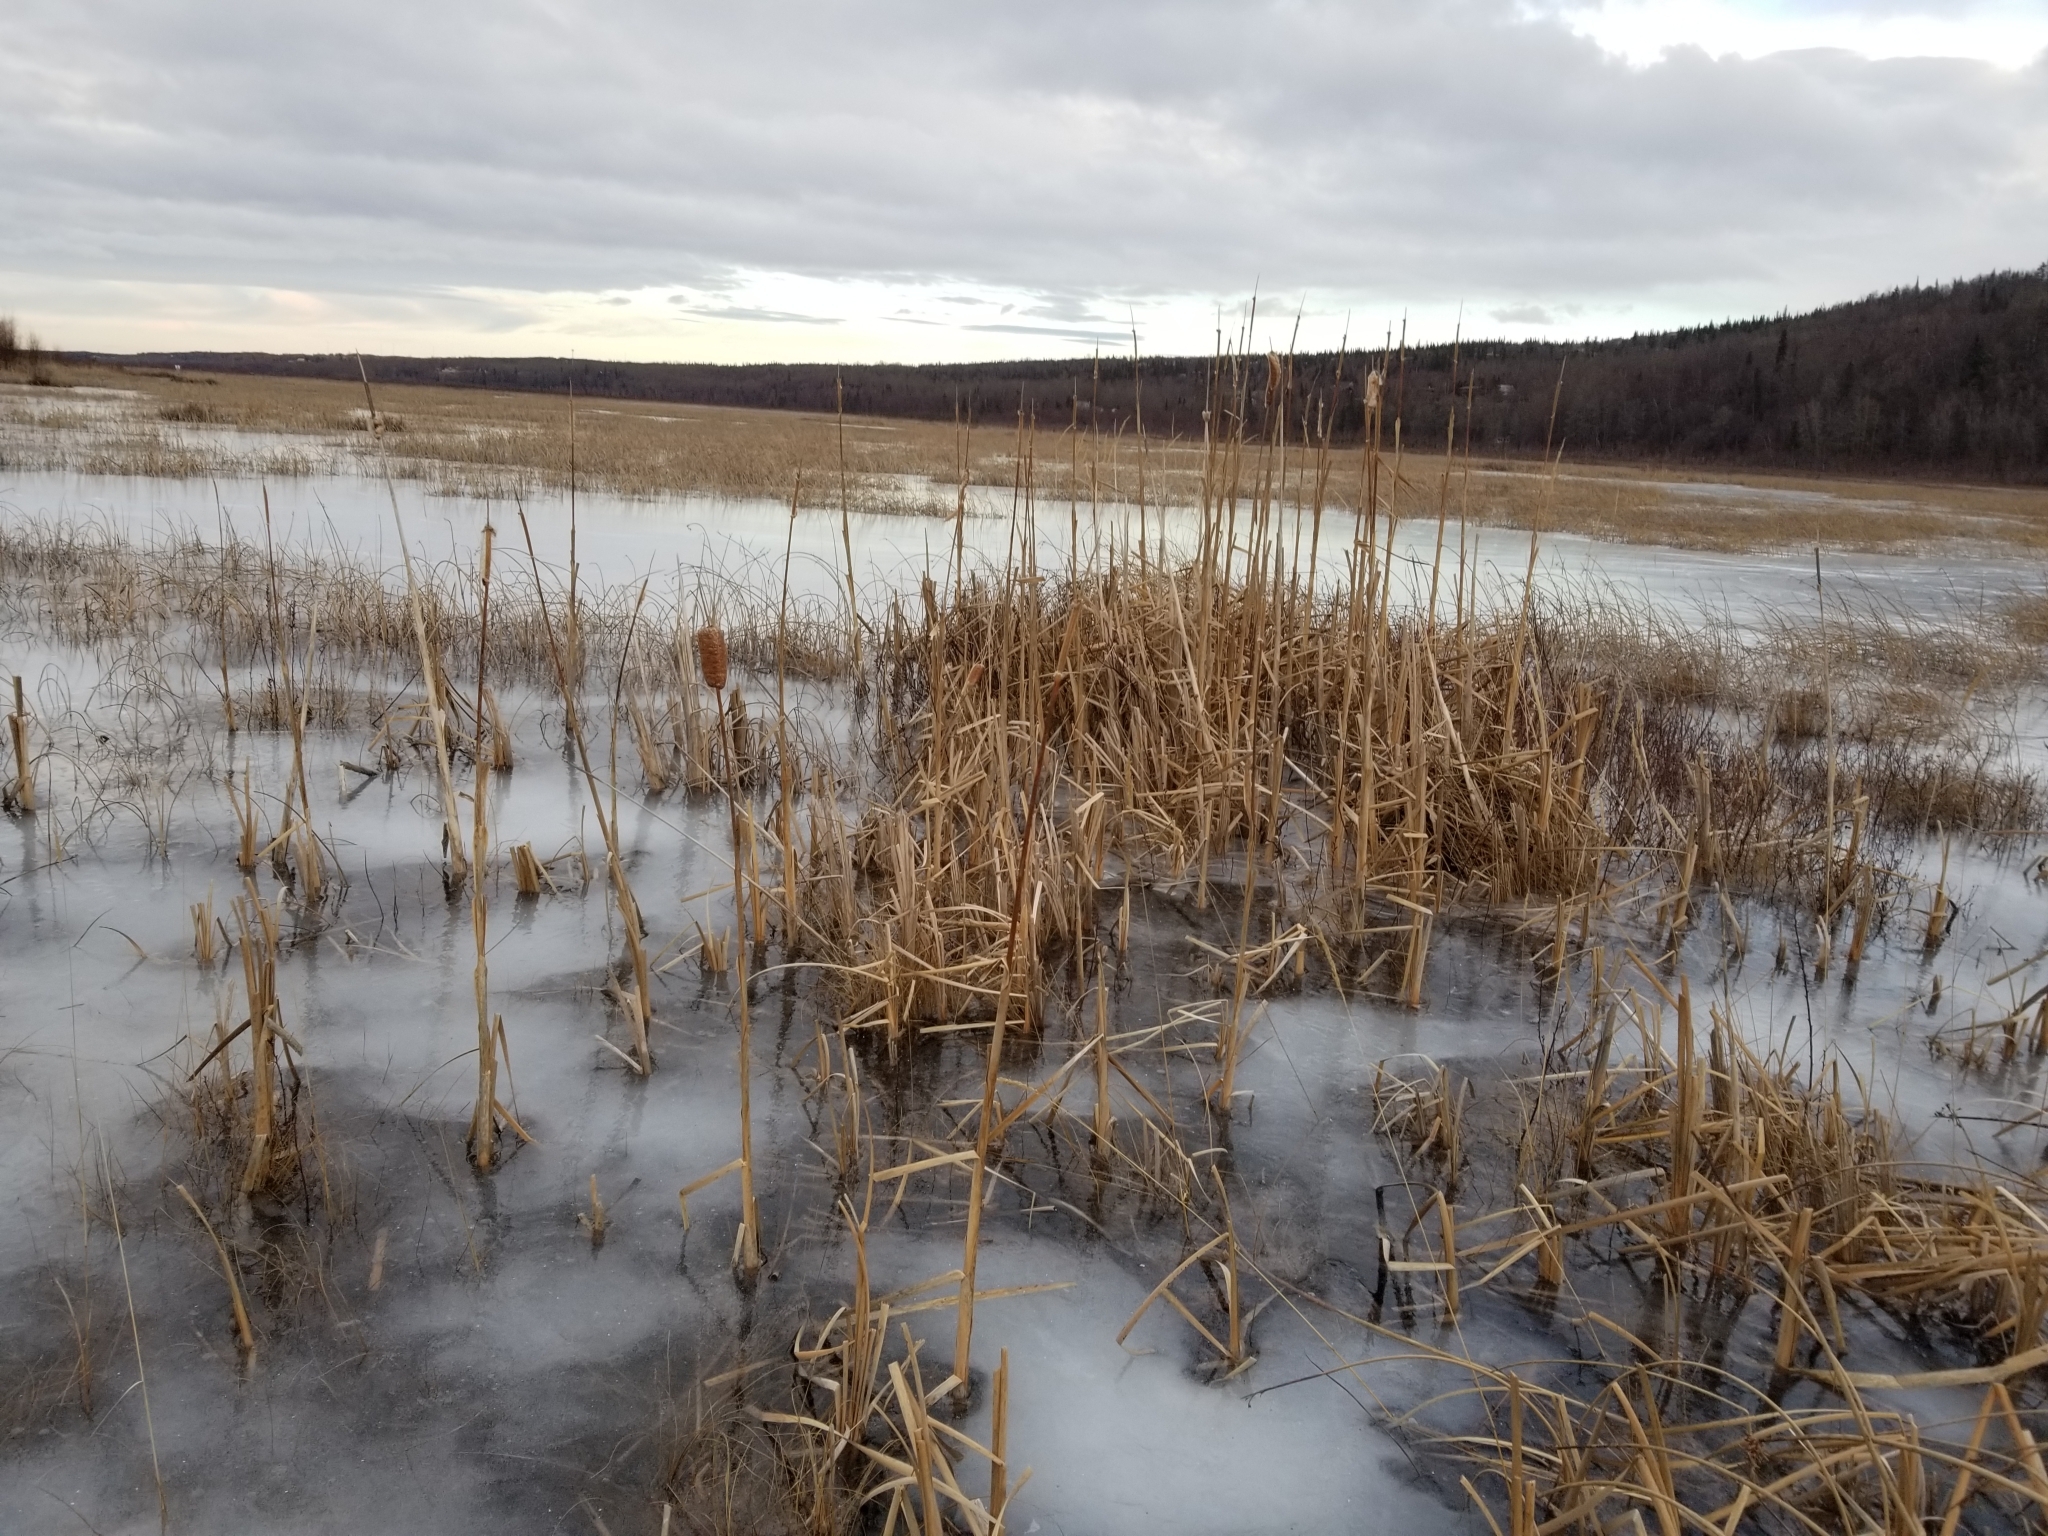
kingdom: Plantae
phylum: Tracheophyta
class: Liliopsida
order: Poales
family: Typhaceae
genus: Typha
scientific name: Typha latifolia
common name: Broadleaf cattail
